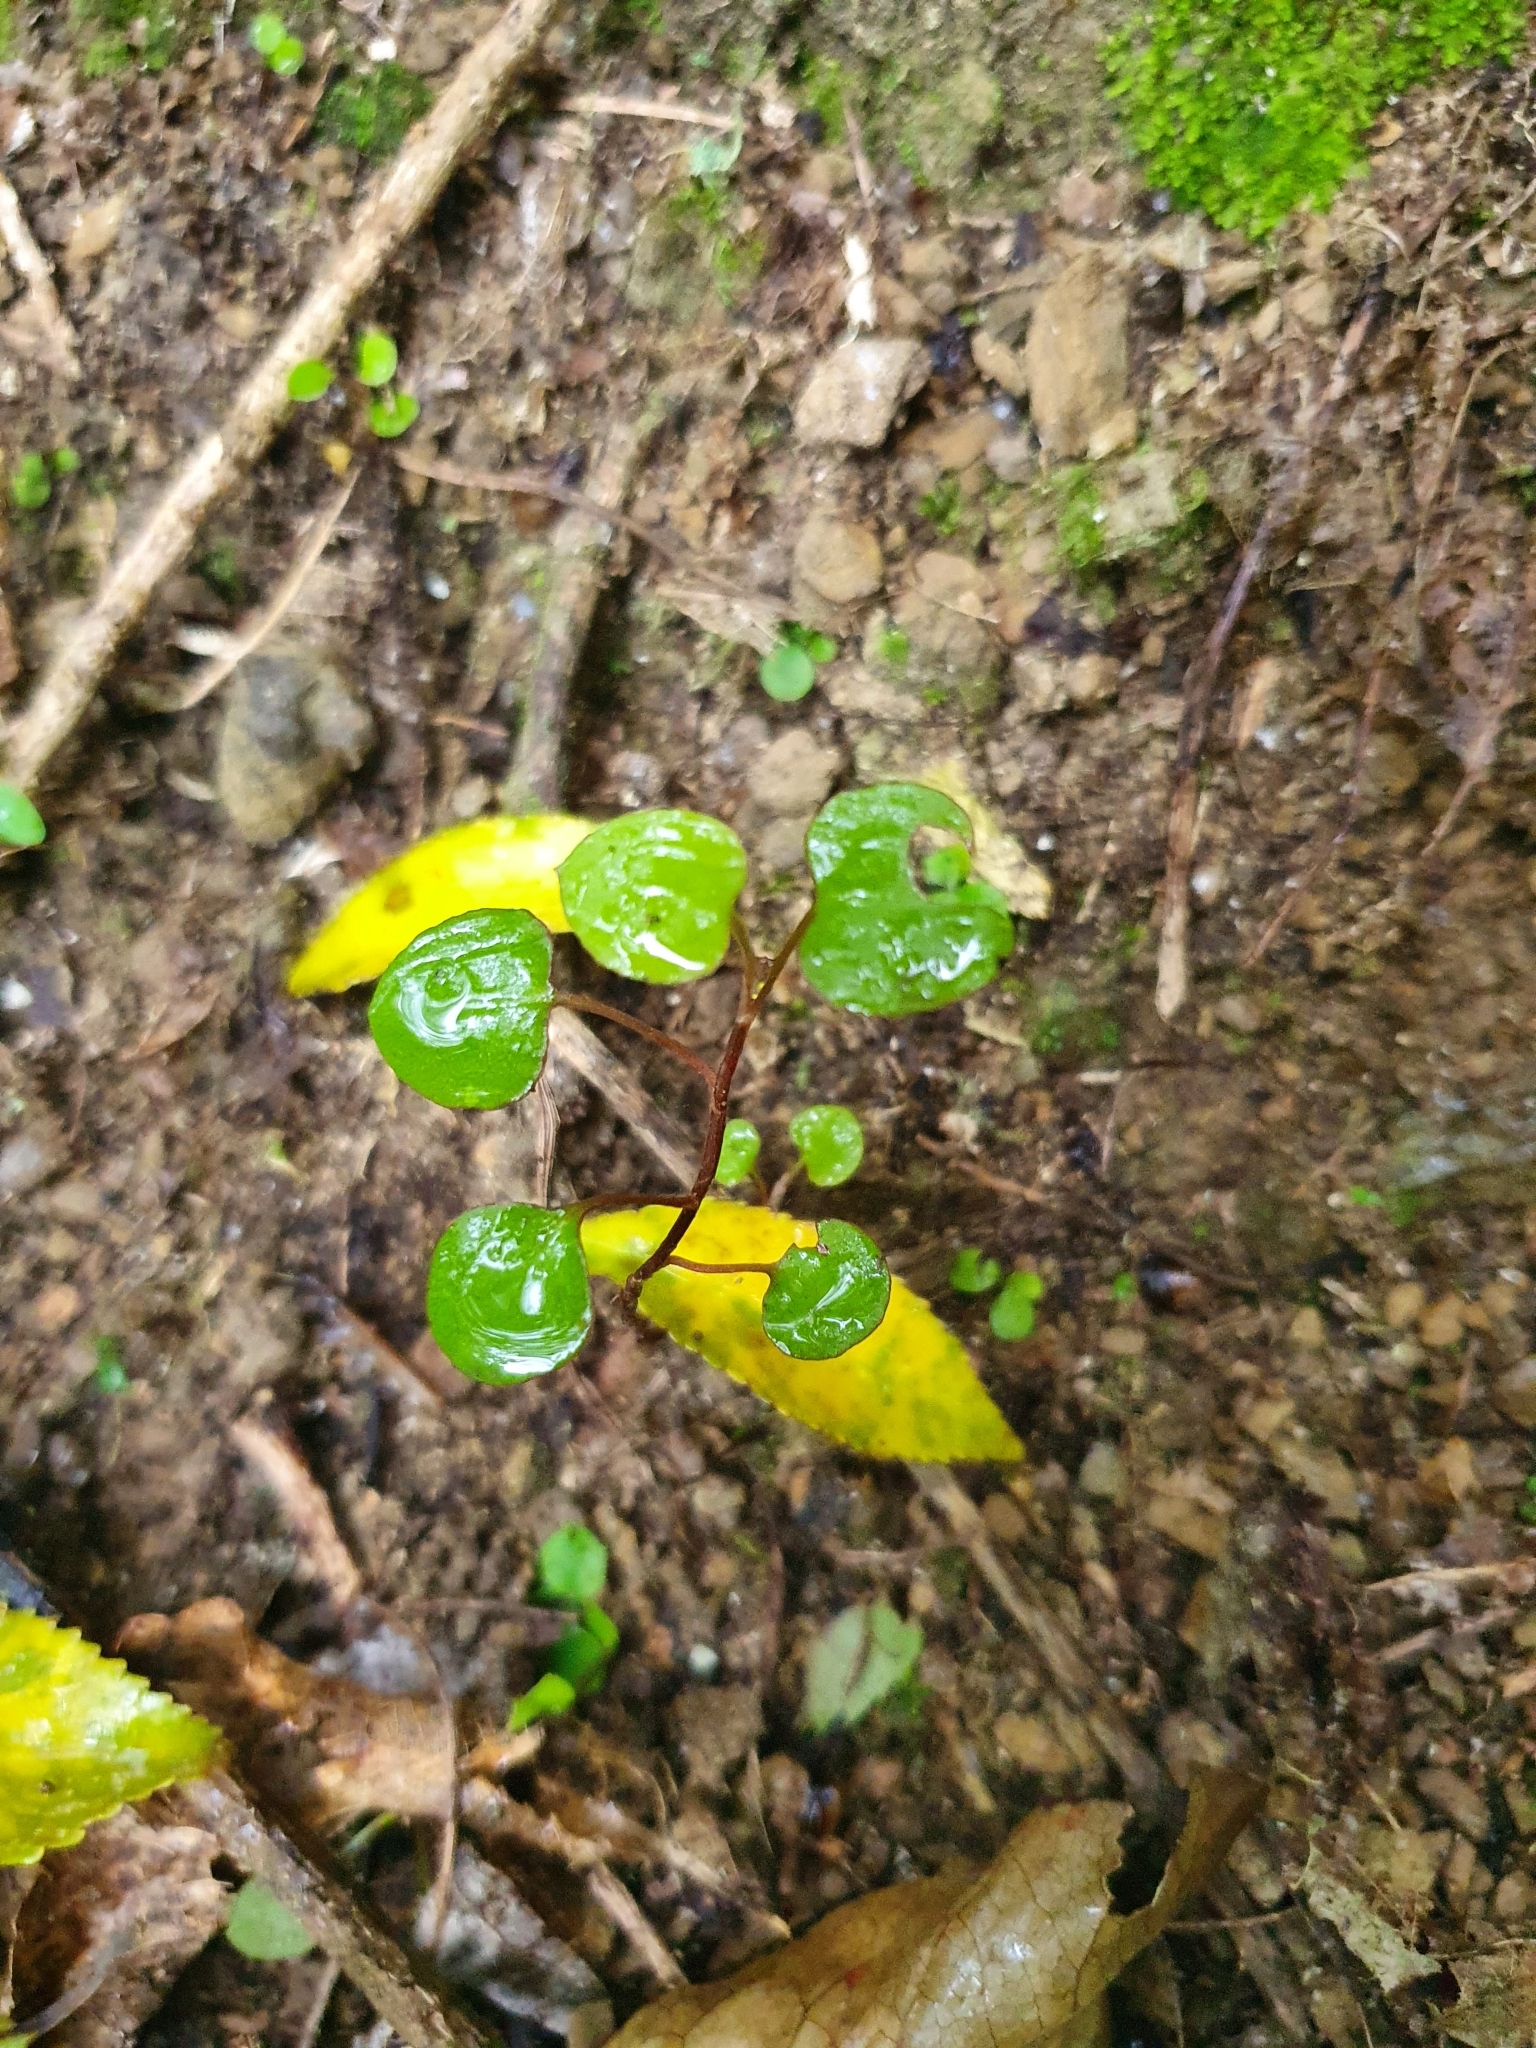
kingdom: Plantae
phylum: Tracheophyta
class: Magnoliopsida
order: Caryophyllales
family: Polygonaceae
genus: Muehlenbeckia
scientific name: Muehlenbeckia australis
